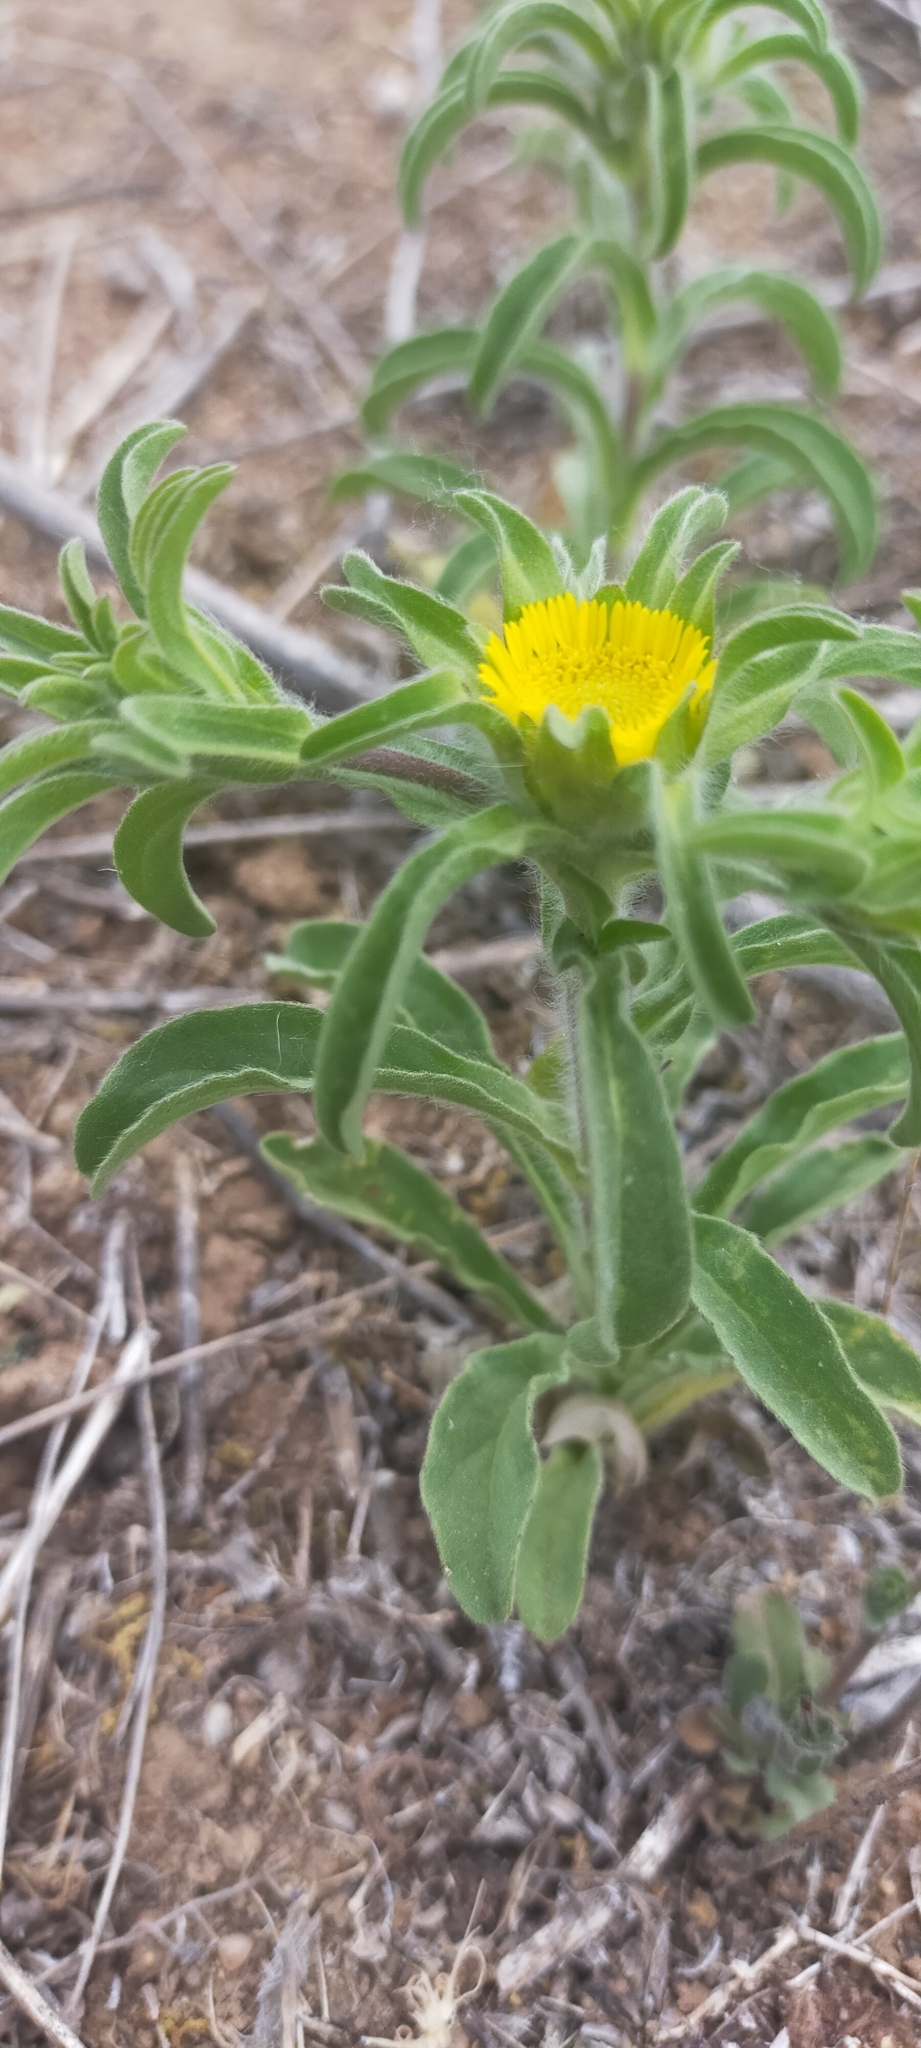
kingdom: Plantae
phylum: Tracheophyta
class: Magnoliopsida
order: Asterales
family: Asteraceae
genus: Asteriscus
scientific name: Asteriscus aquaticus
